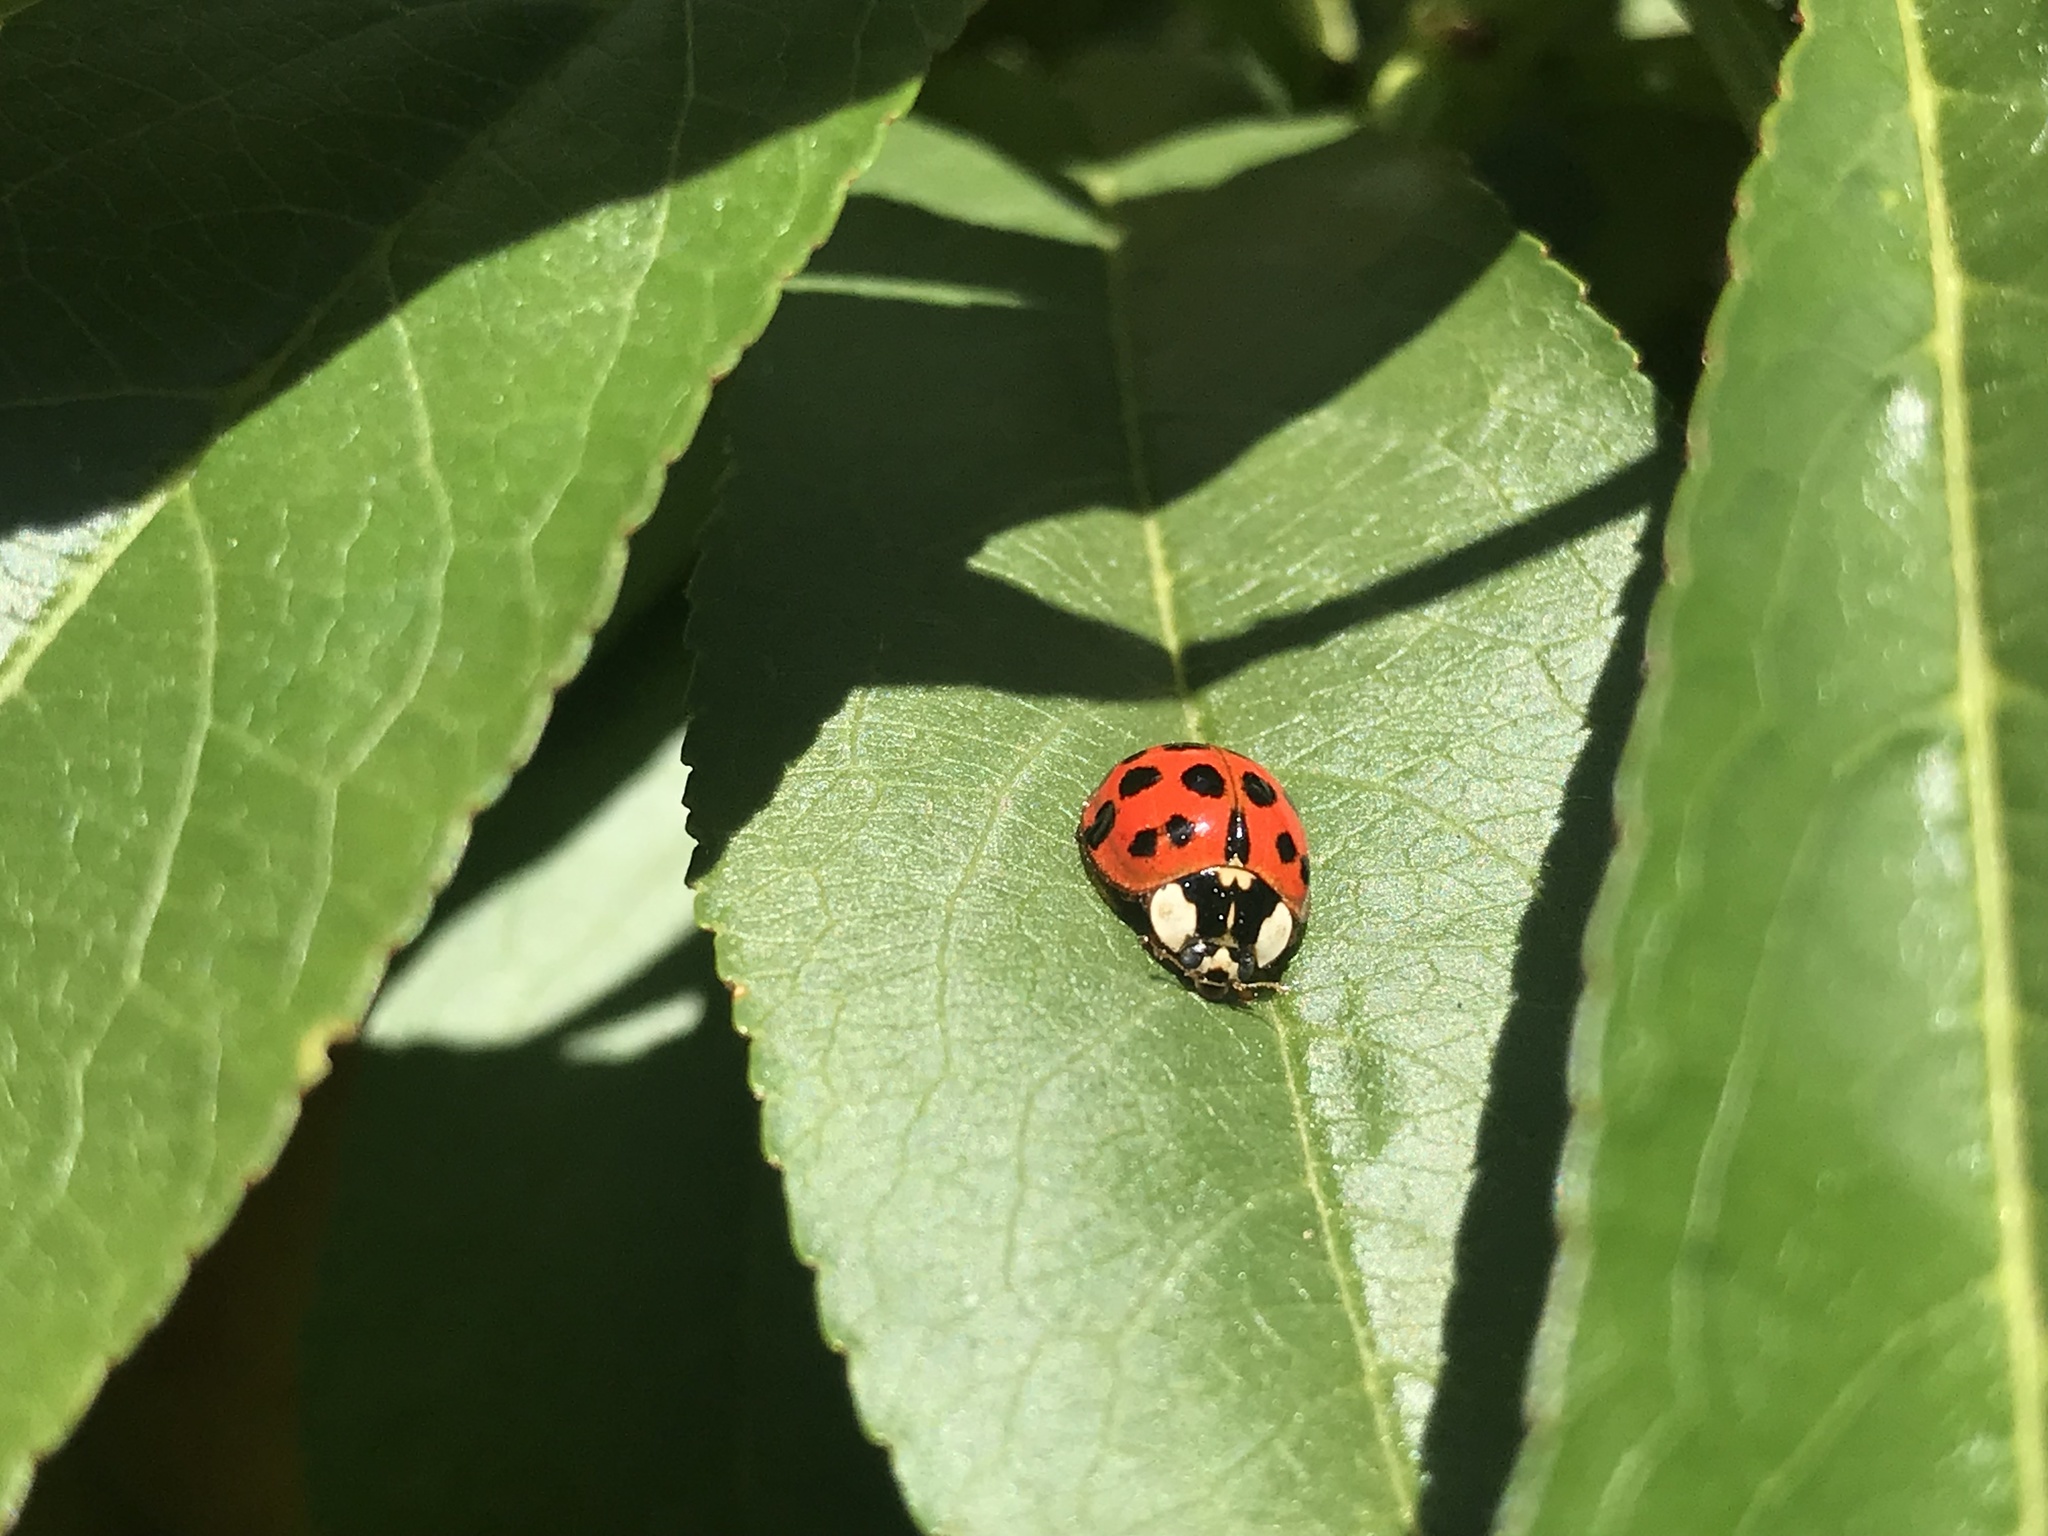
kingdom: Animalia
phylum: Arthropoda
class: Insecta
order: Coleoptera
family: Coccinellidae
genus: Harmonia
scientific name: Harmonia axyridis
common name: Harlequin ladybird
